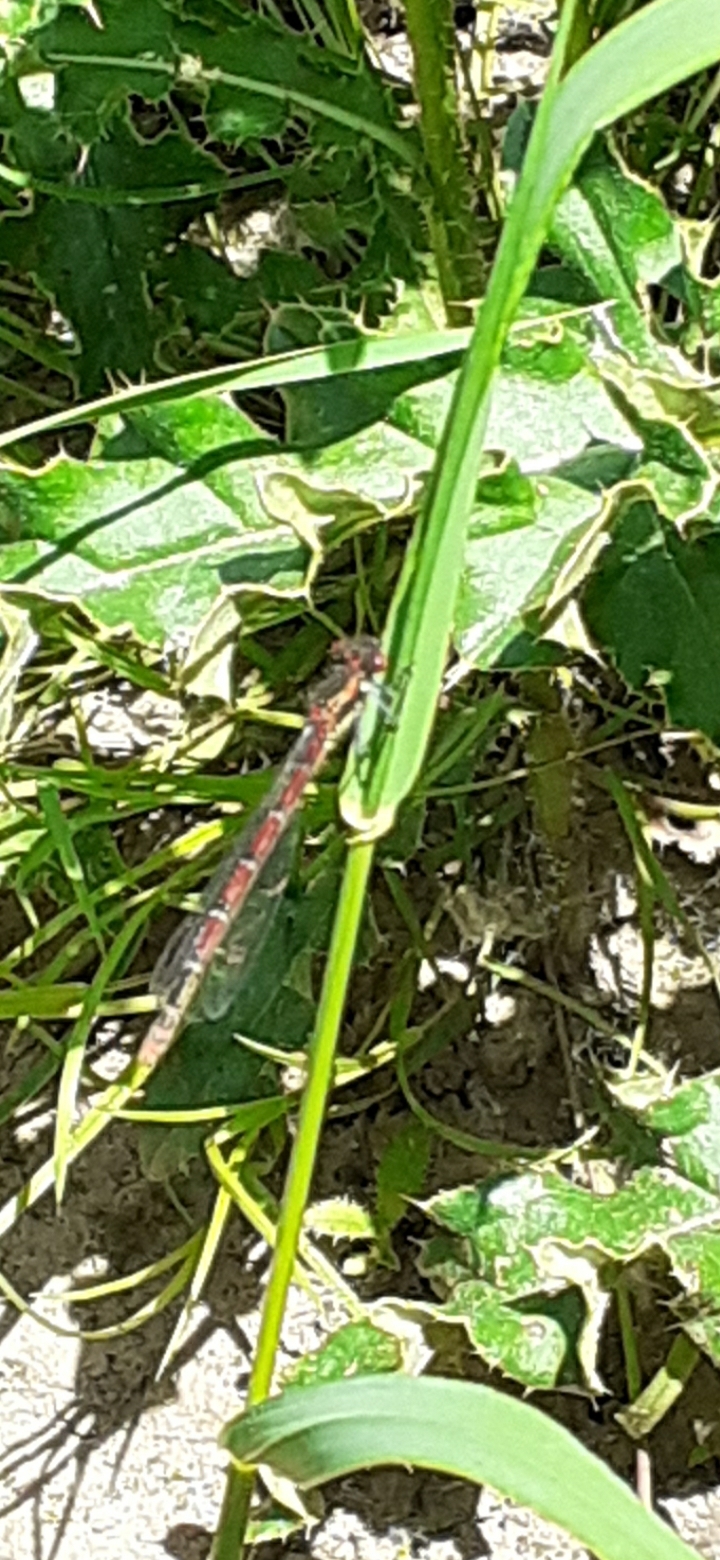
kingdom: Animalia
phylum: Arthropoda
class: Insecta
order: Odonata
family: Coenagrionidae
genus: Pyrrhosoma
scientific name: Pyrrhosoma nymphula
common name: Large red damsel
